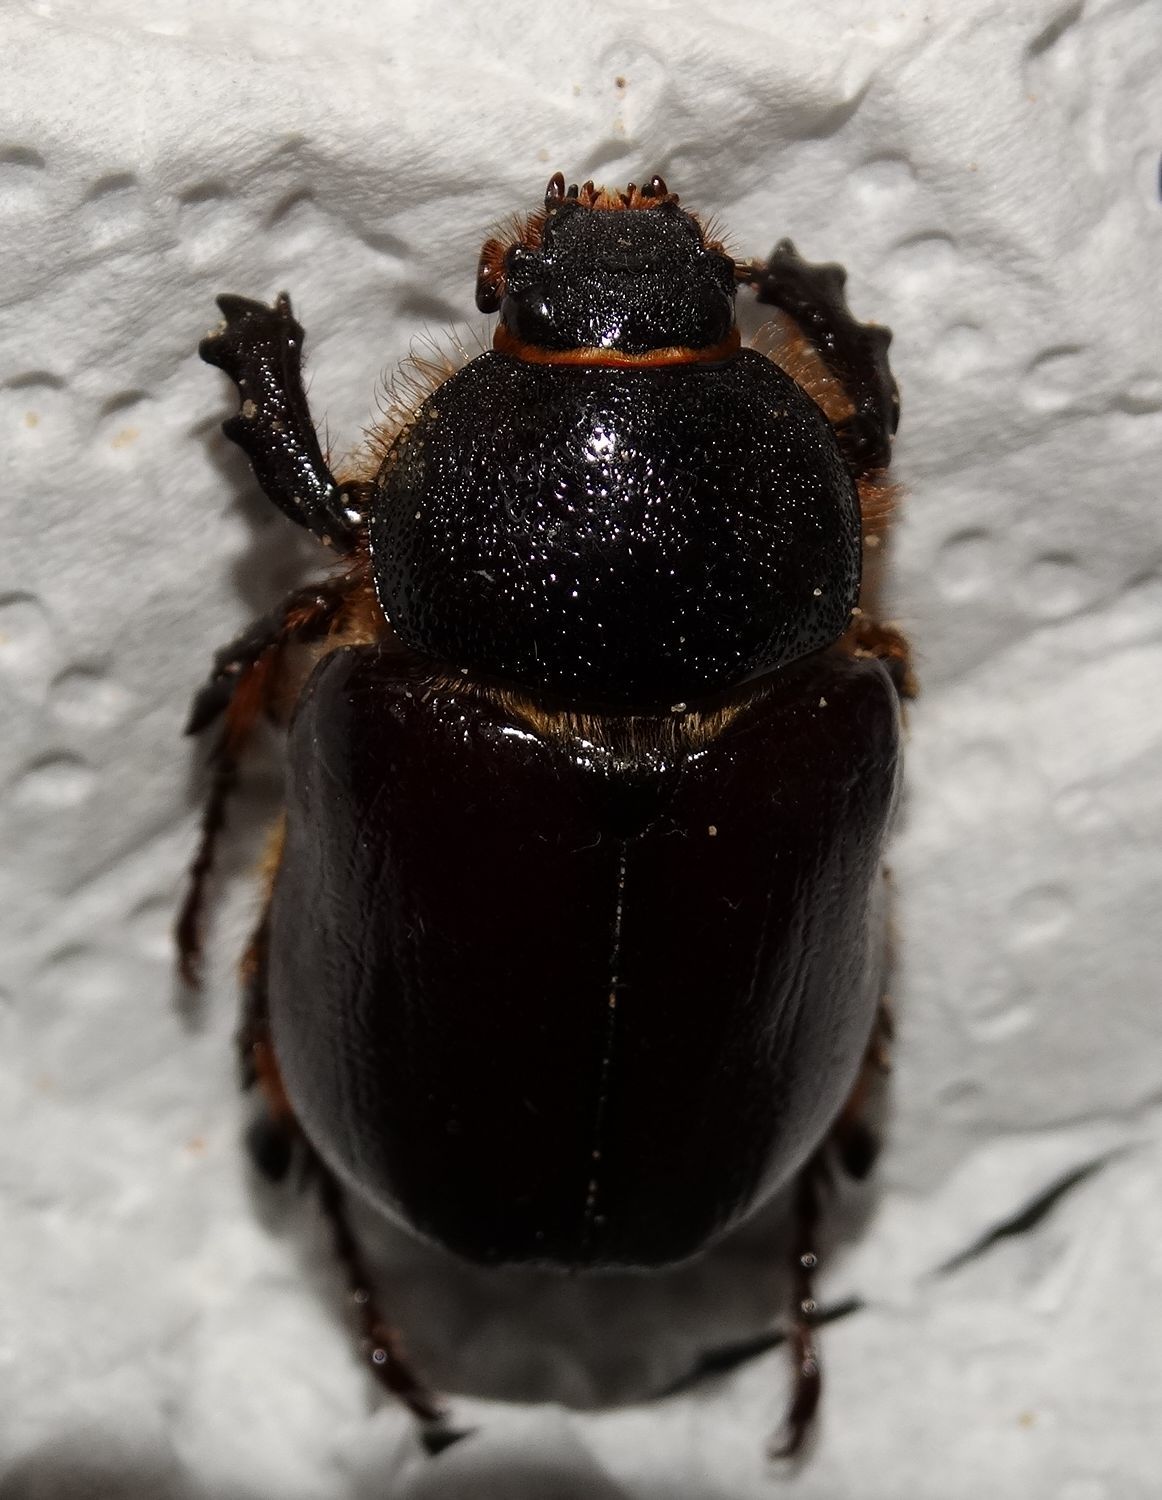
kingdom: Animalia
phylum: Arthropoda
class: Insecta
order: Coleoptera
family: Scarabaeidae
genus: Megasoma
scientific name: Megasoma sleeperi
